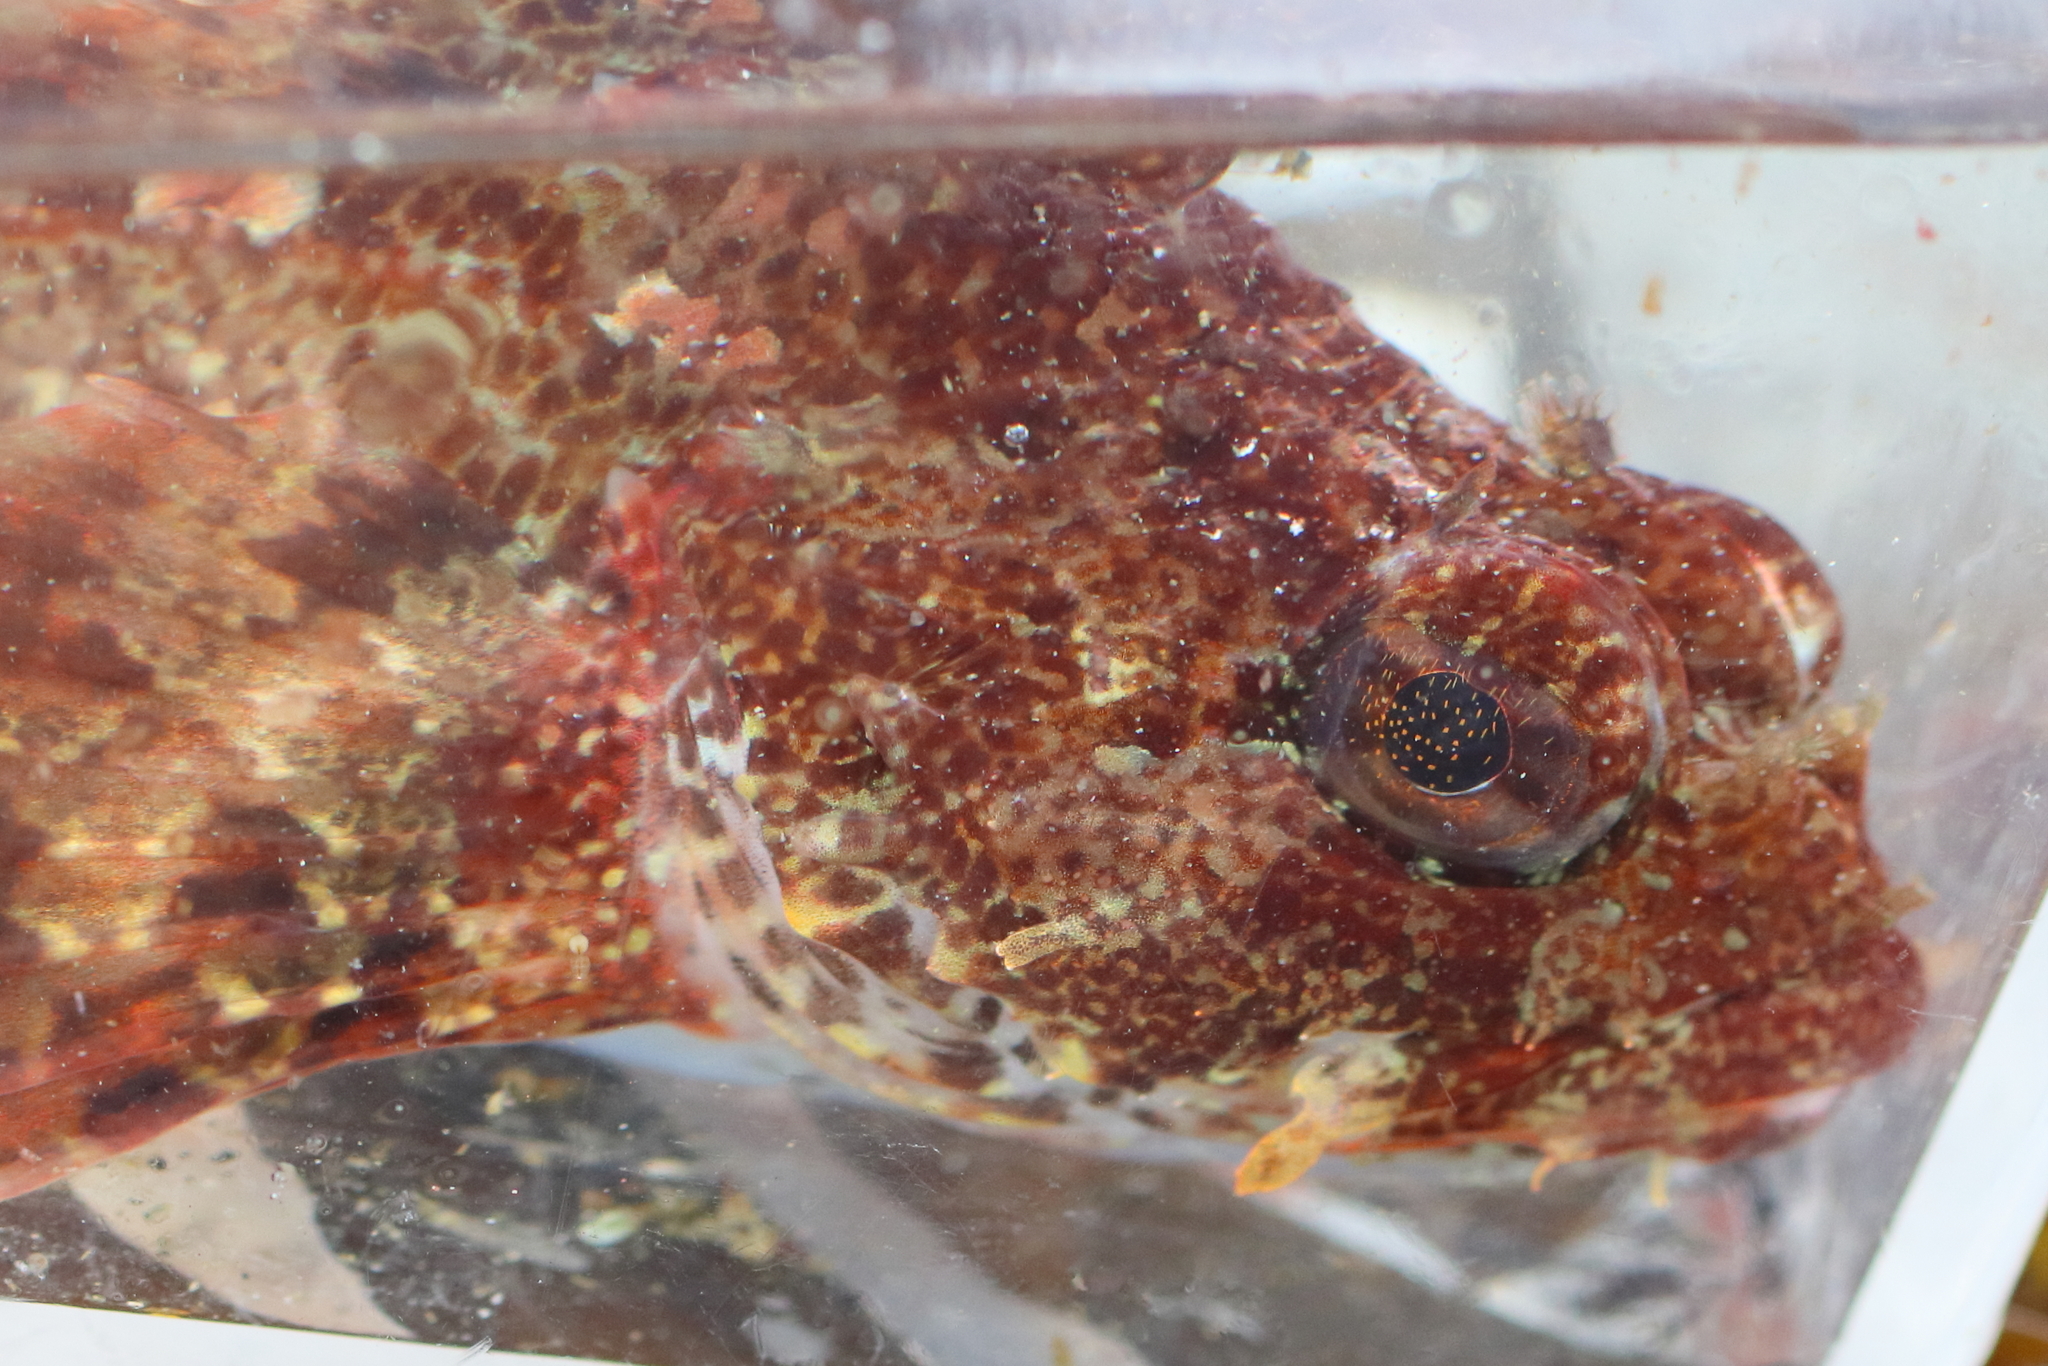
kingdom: Animalia
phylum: Chordata
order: Scorpaeniformes
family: Cottidae
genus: Hemilepidotus
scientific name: Hemilepidotus hemilepidotus
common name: Red irish lord
